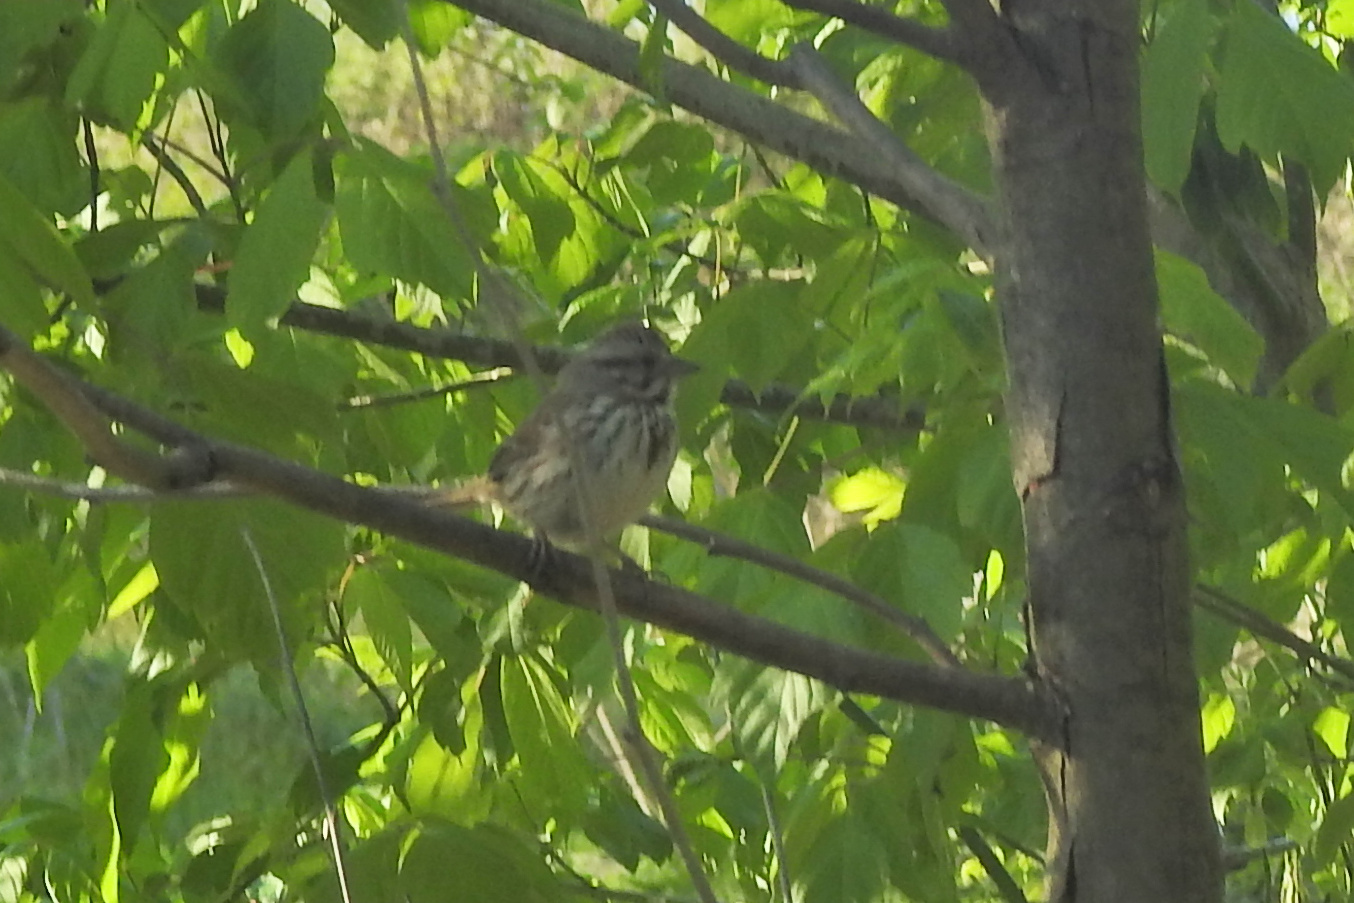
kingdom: Animalia
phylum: Chordata
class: Aves
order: Passeriformes
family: Passerellidae
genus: Melospiza
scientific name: Melospiza melodia
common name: Song sparrow
